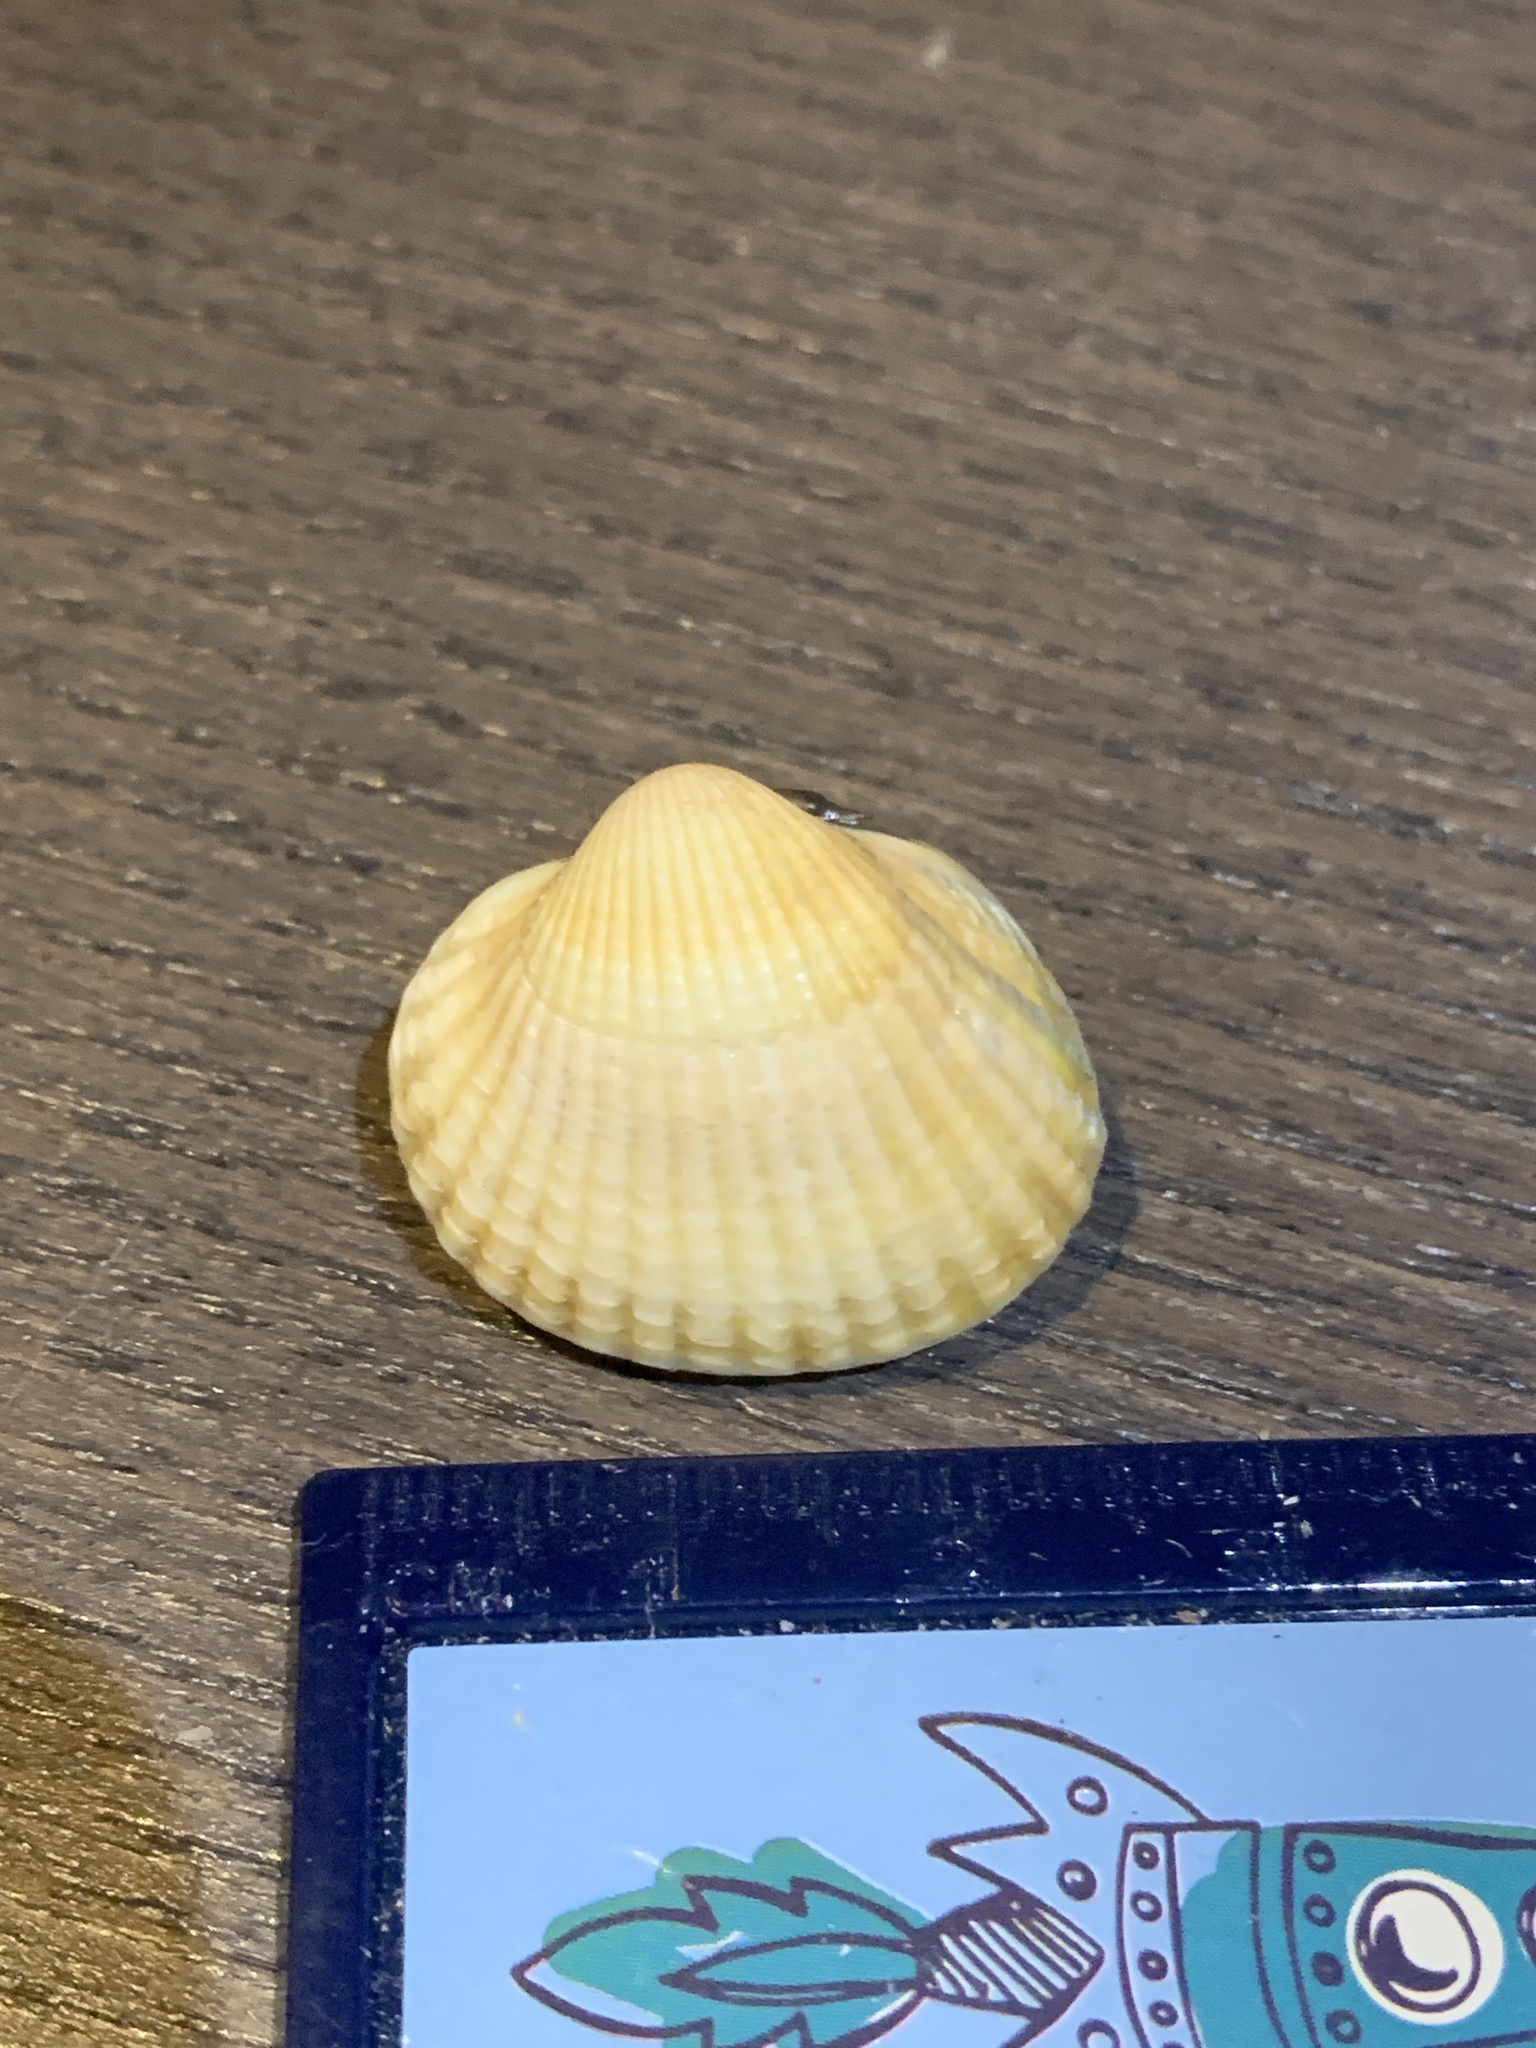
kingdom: Animalia
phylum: Mollusca
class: Bivalvia
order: Cardiida
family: Cardiidae
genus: Cerastoderma
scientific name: Cerastoderma edule
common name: Common cockle
